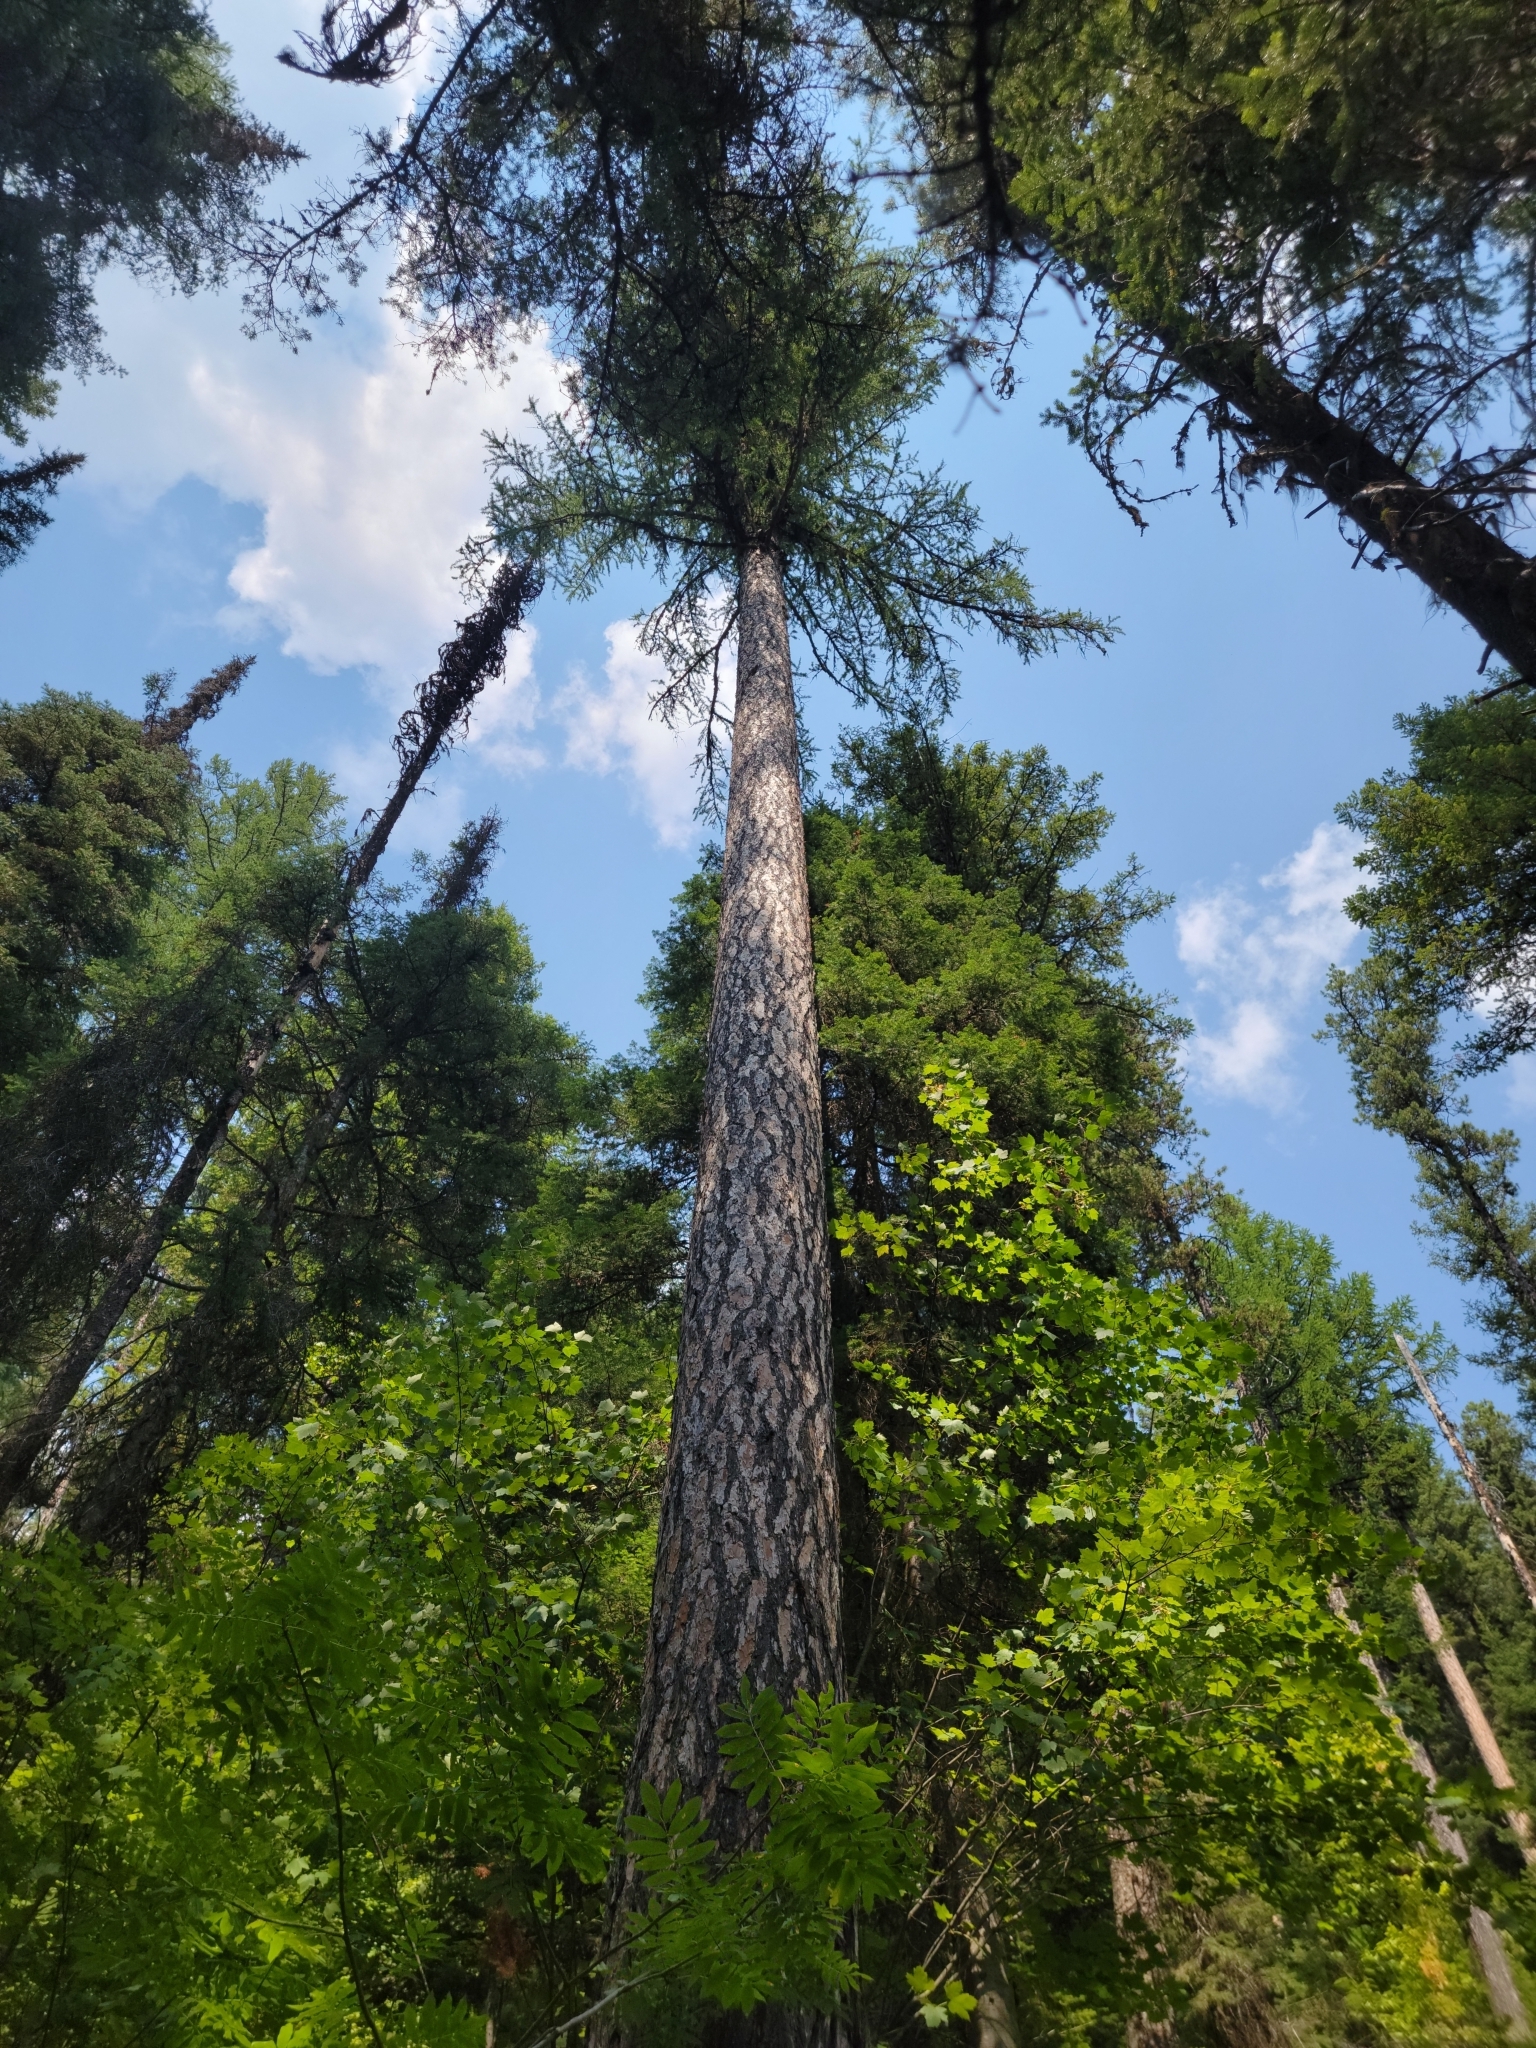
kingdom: Plantae
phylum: Tracheophyta
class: Pinopsida
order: Pinales
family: Pinaceae
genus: Larix
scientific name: Larix occidentalis
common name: Western larch
